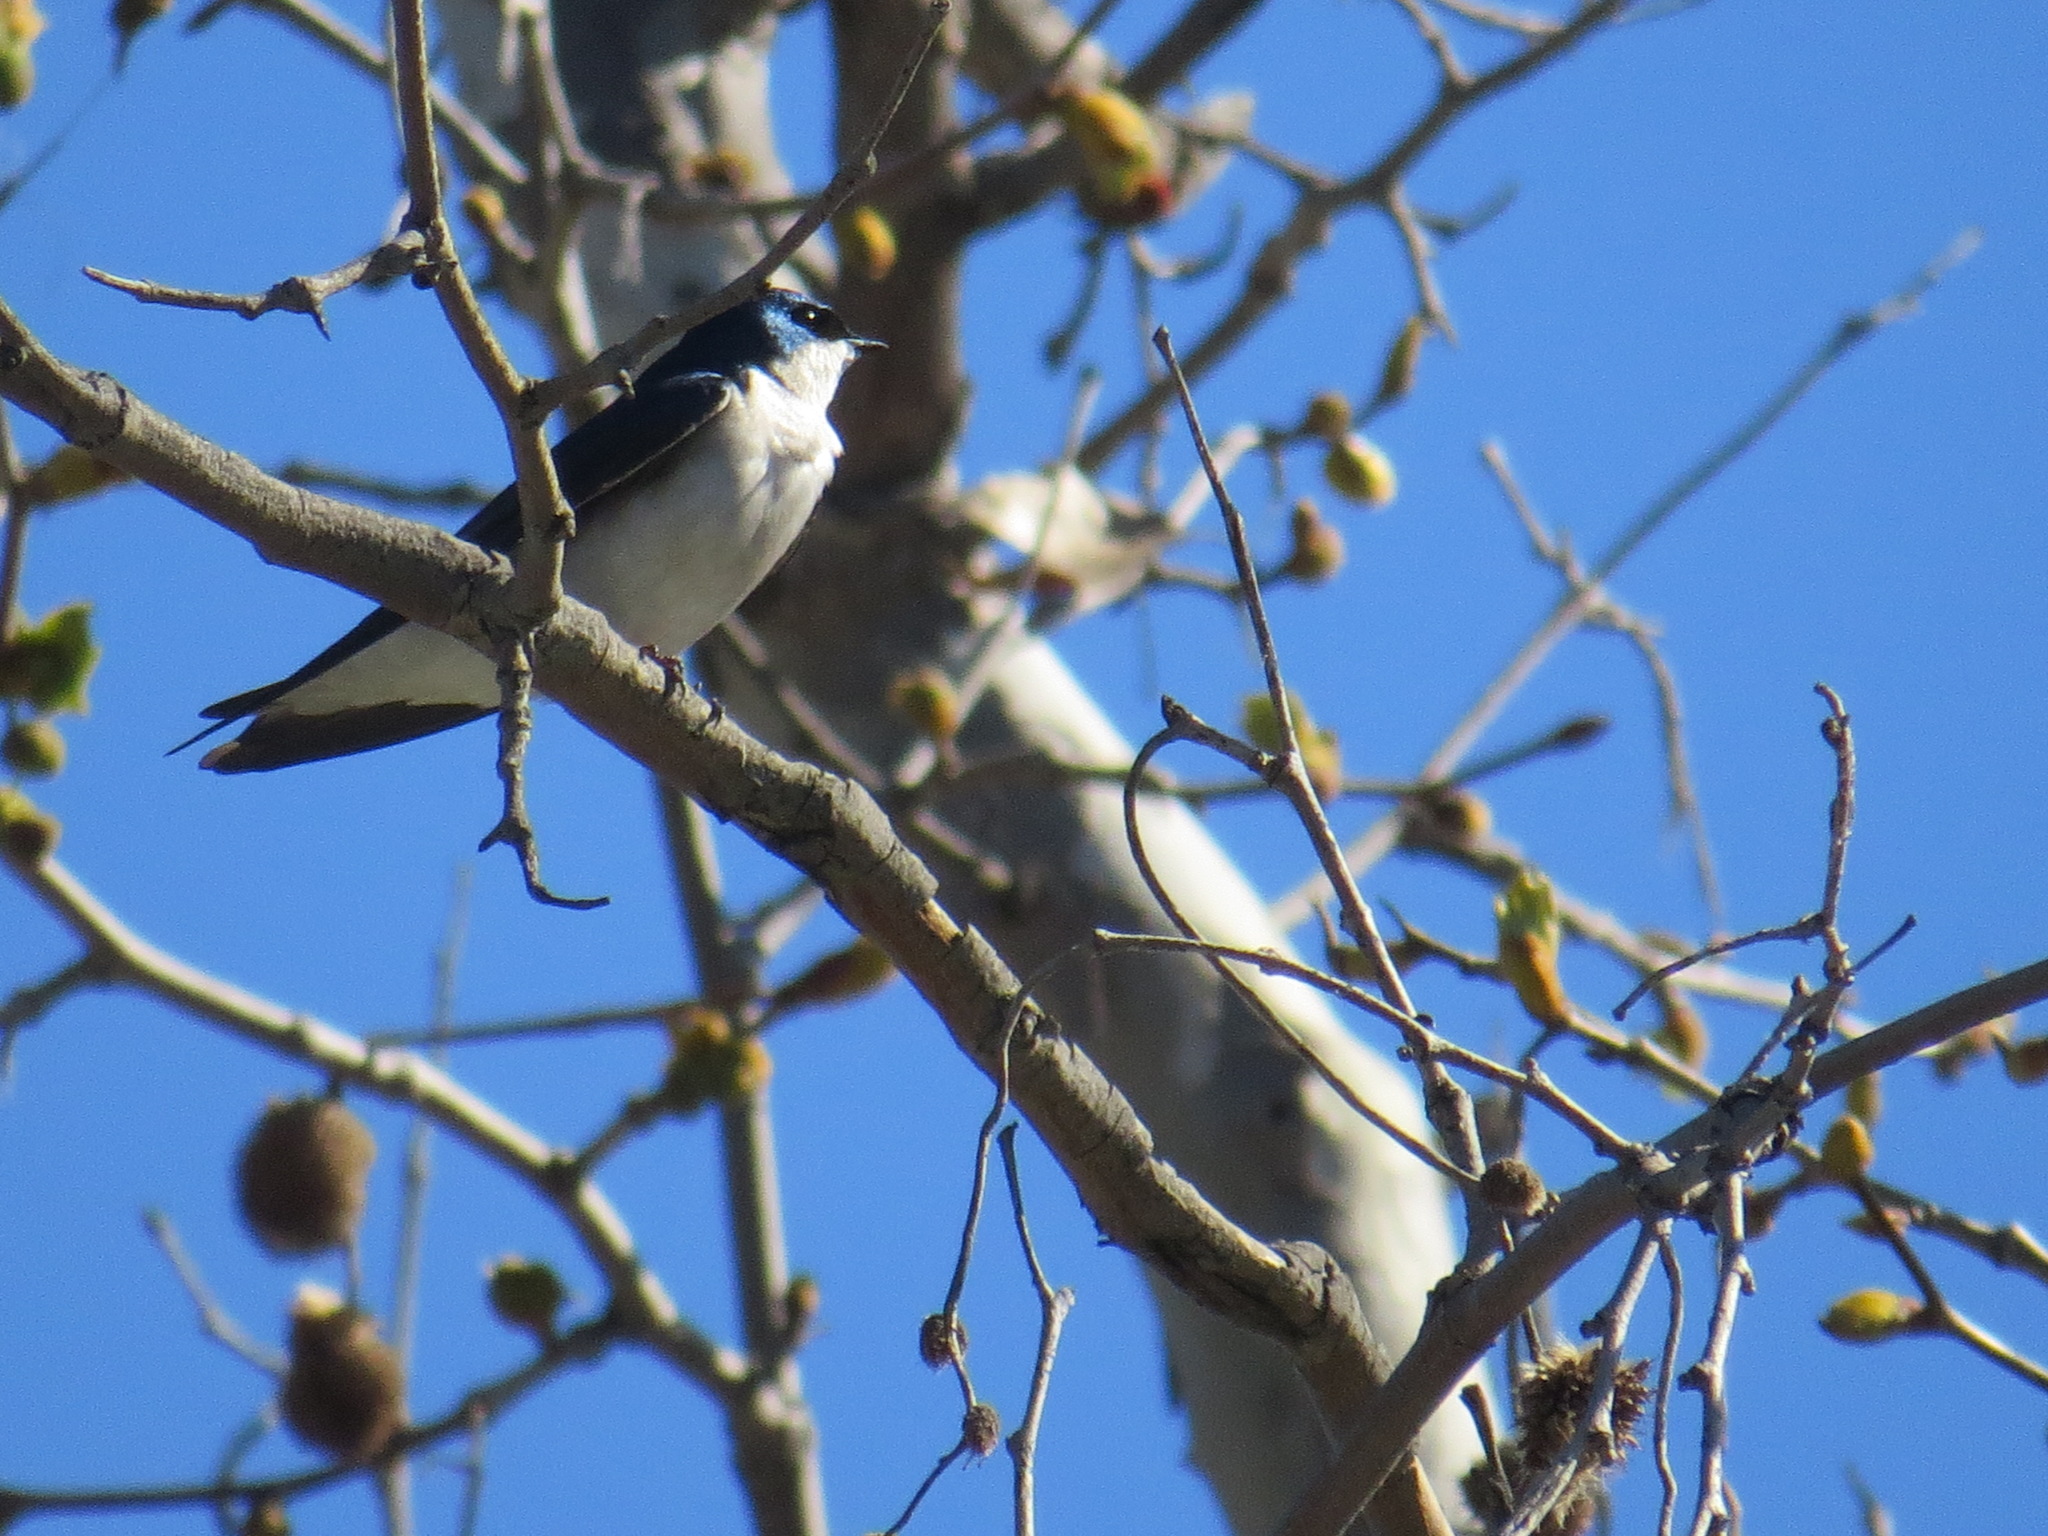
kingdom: Animalia
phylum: Chordata
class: Aves
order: Passeriformes
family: Hirundinidae
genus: Tachycineta
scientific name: Tachycineta bicolor
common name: Tree swallow
